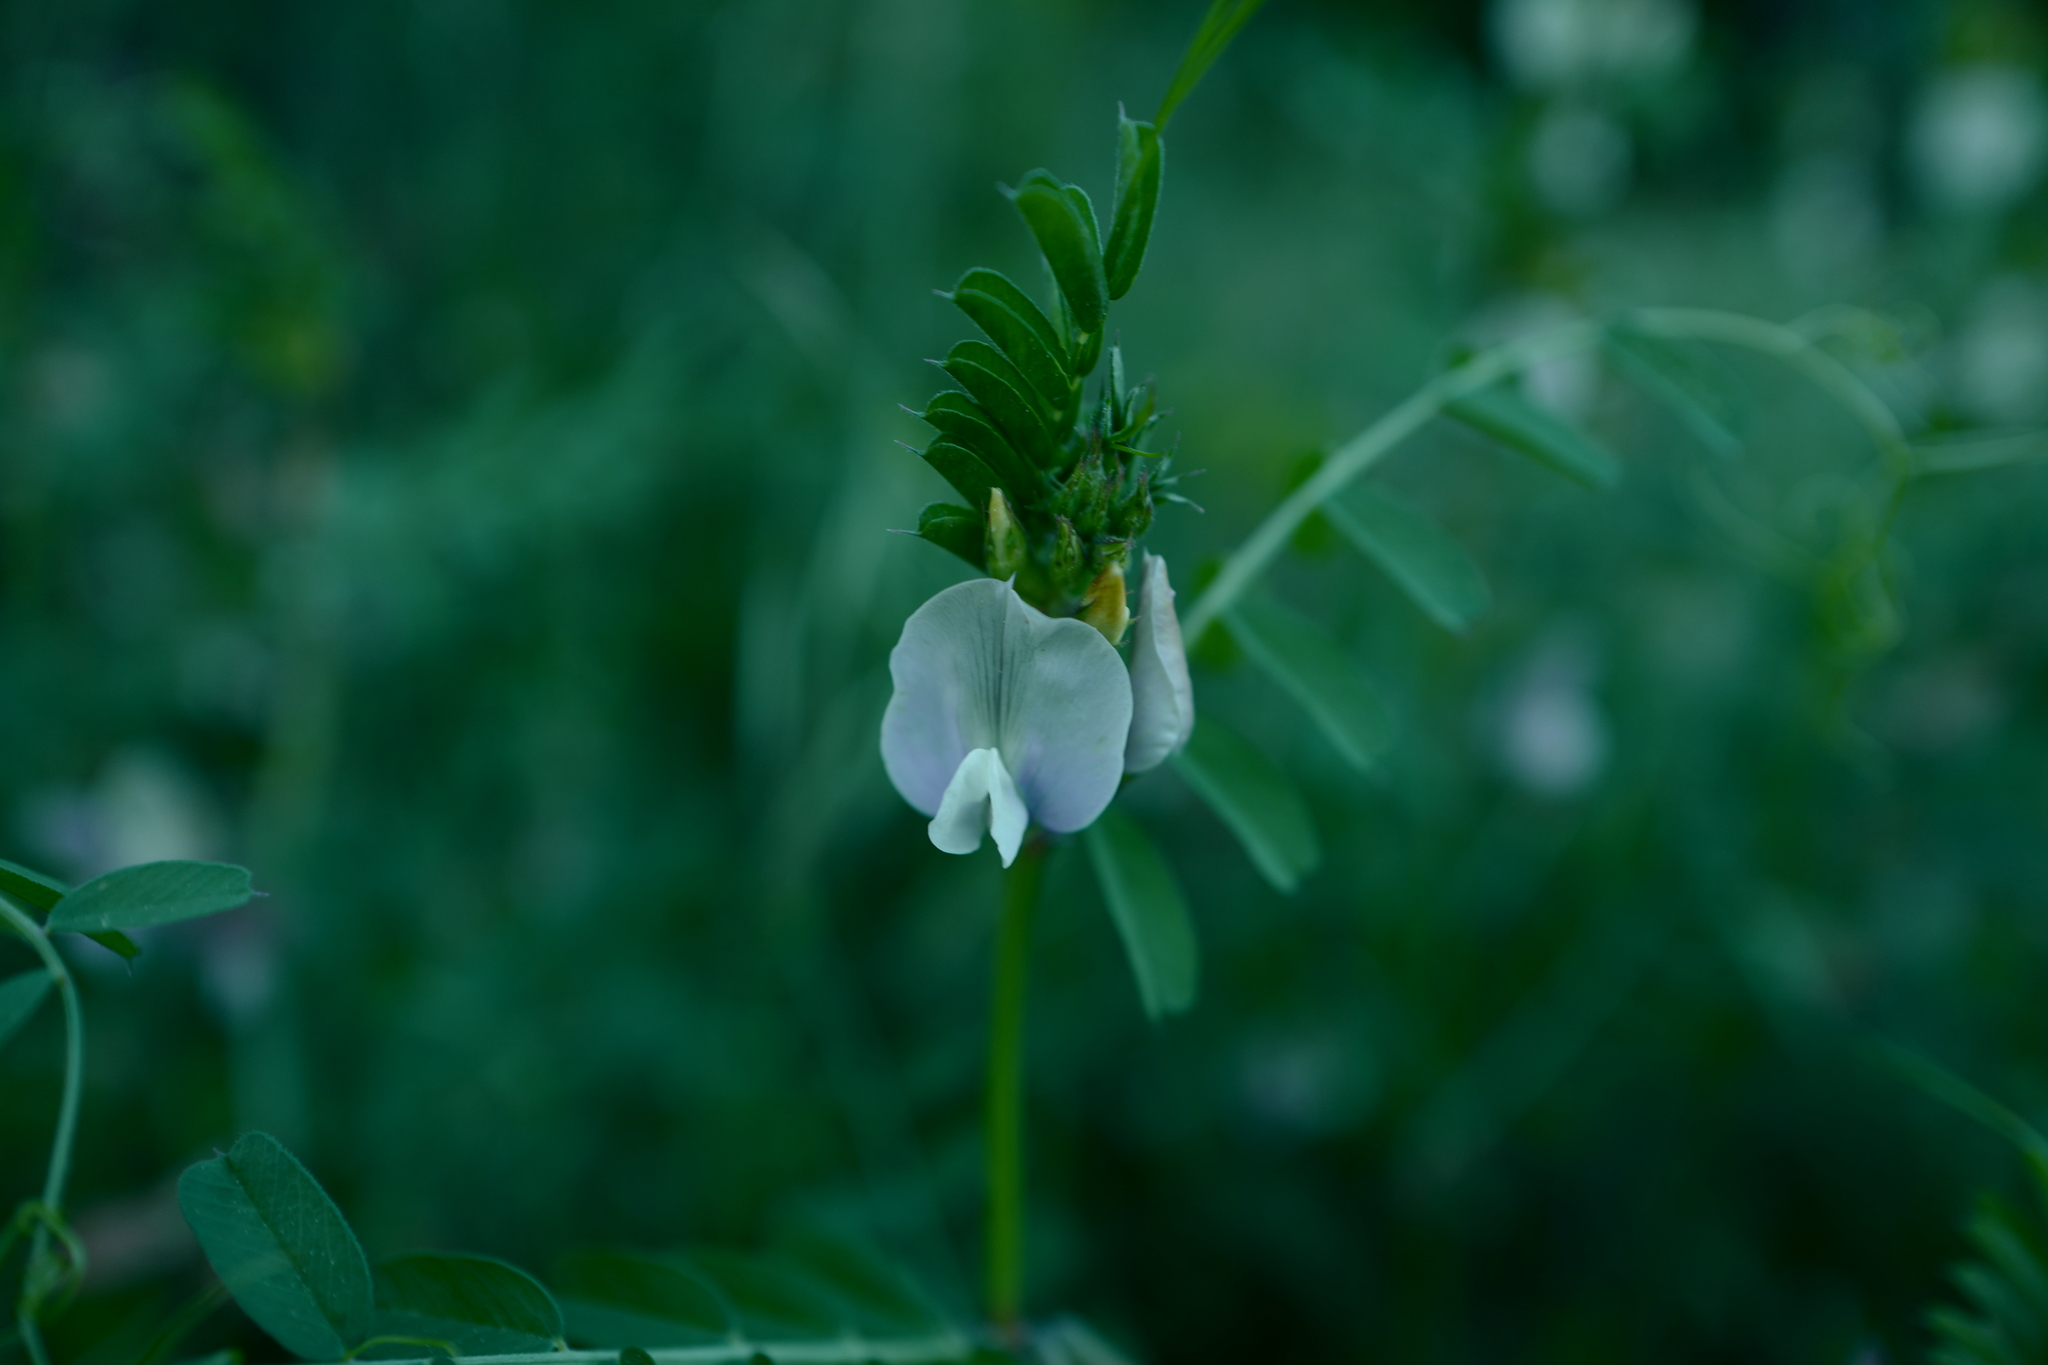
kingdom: Plantae
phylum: Tracheophyta
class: Magnoliopsida
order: Fabales
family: Fabaceae
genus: Vicia
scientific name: Vicia grandiflora
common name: Large yellow vetch
